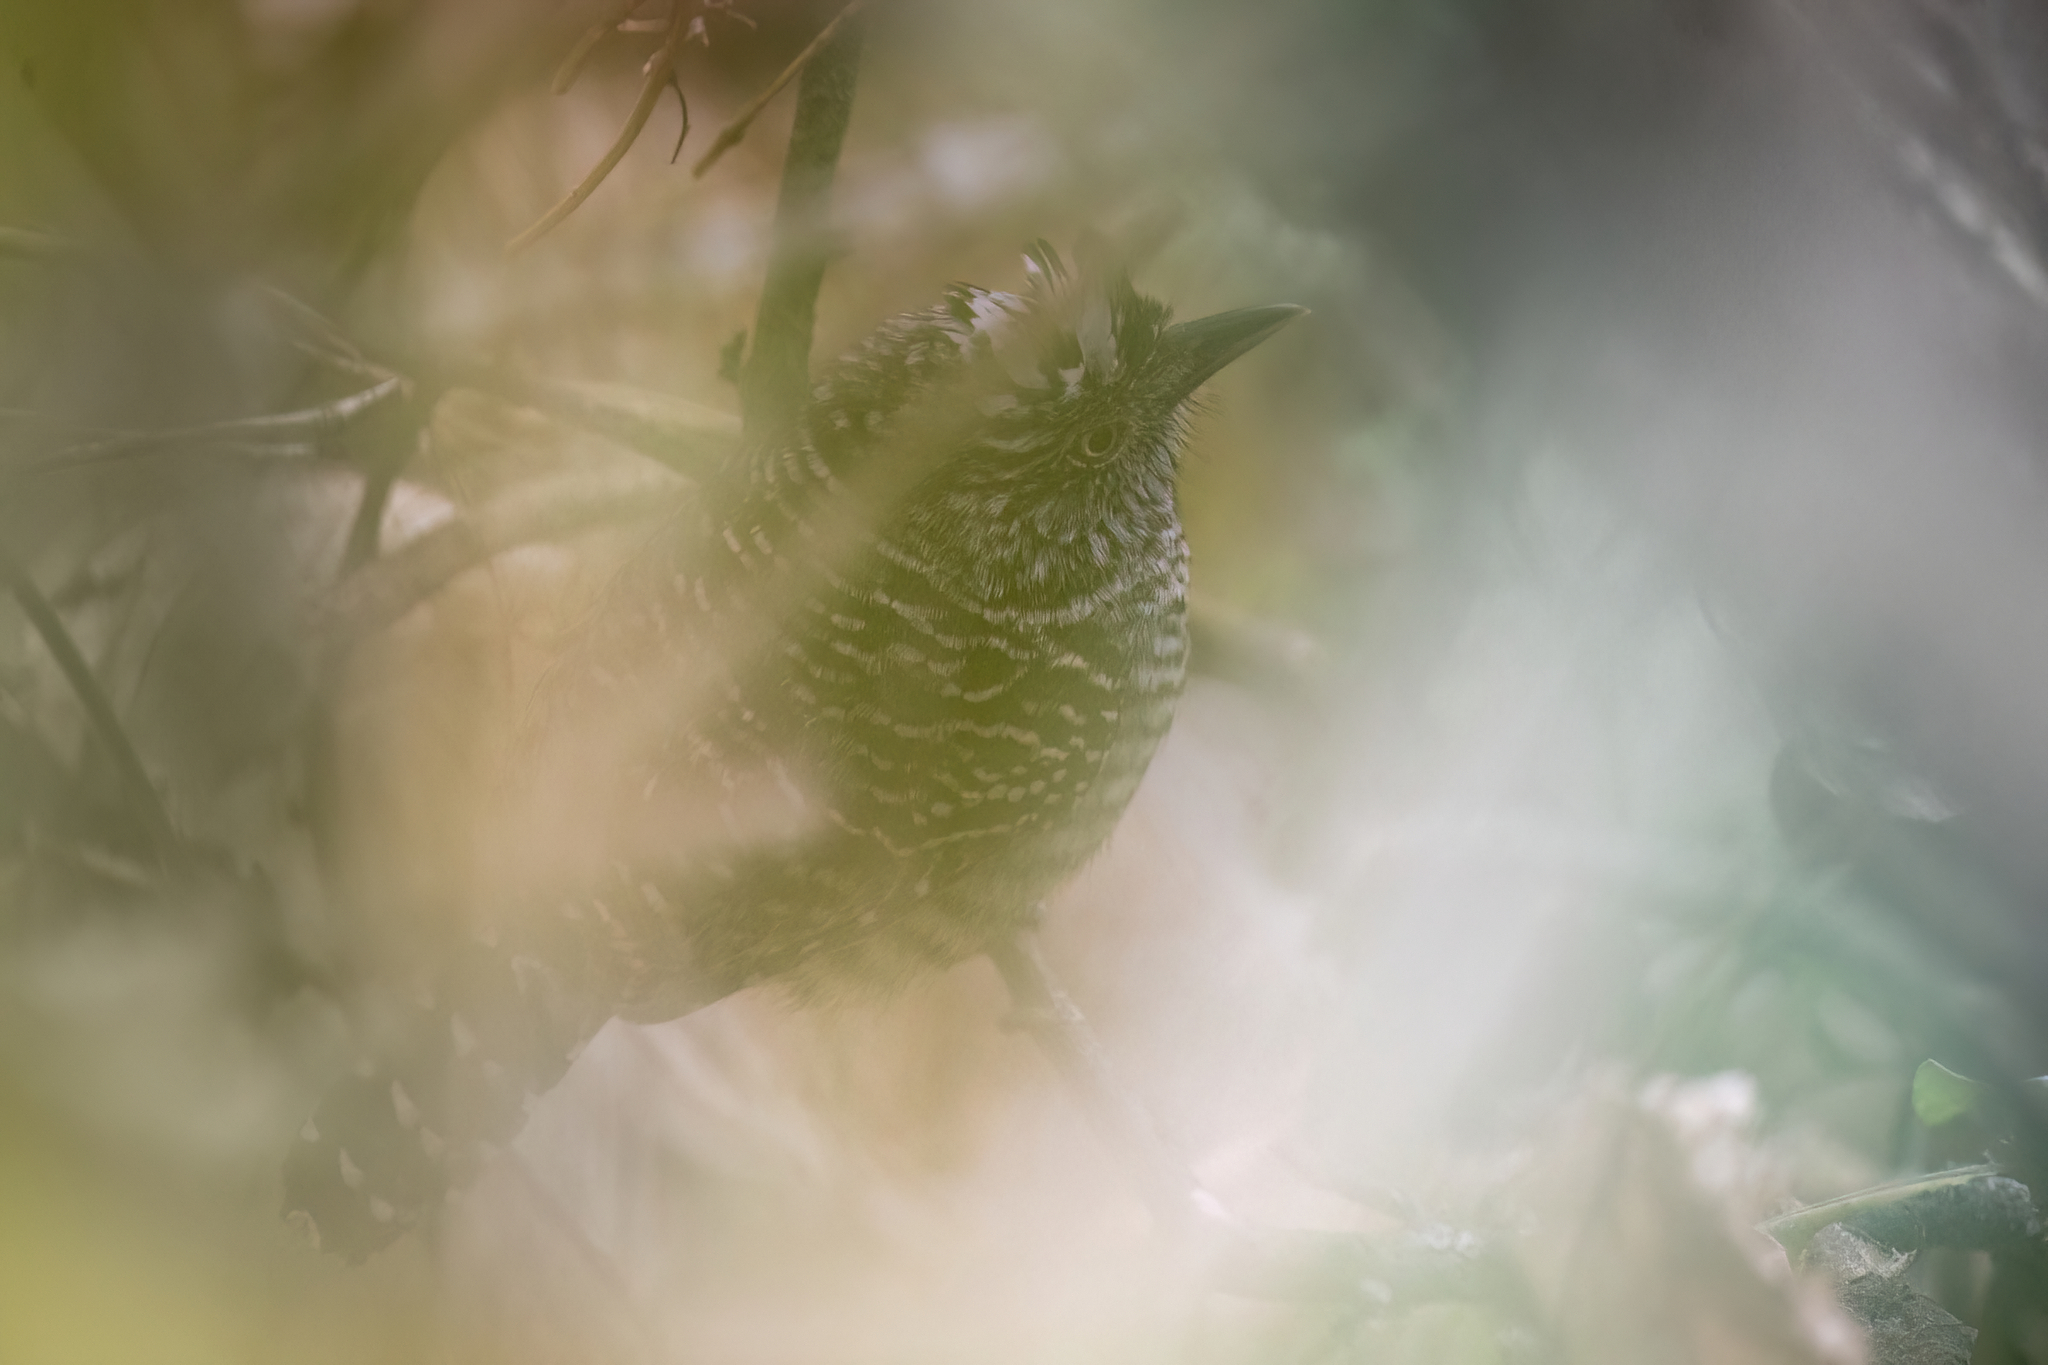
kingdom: Animalia
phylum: Chordata
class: Aves
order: Passeriformes
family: Thamnophilidae
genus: Thamnophilus
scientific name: Thamnophilus doliatus
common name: Barred antshrike
